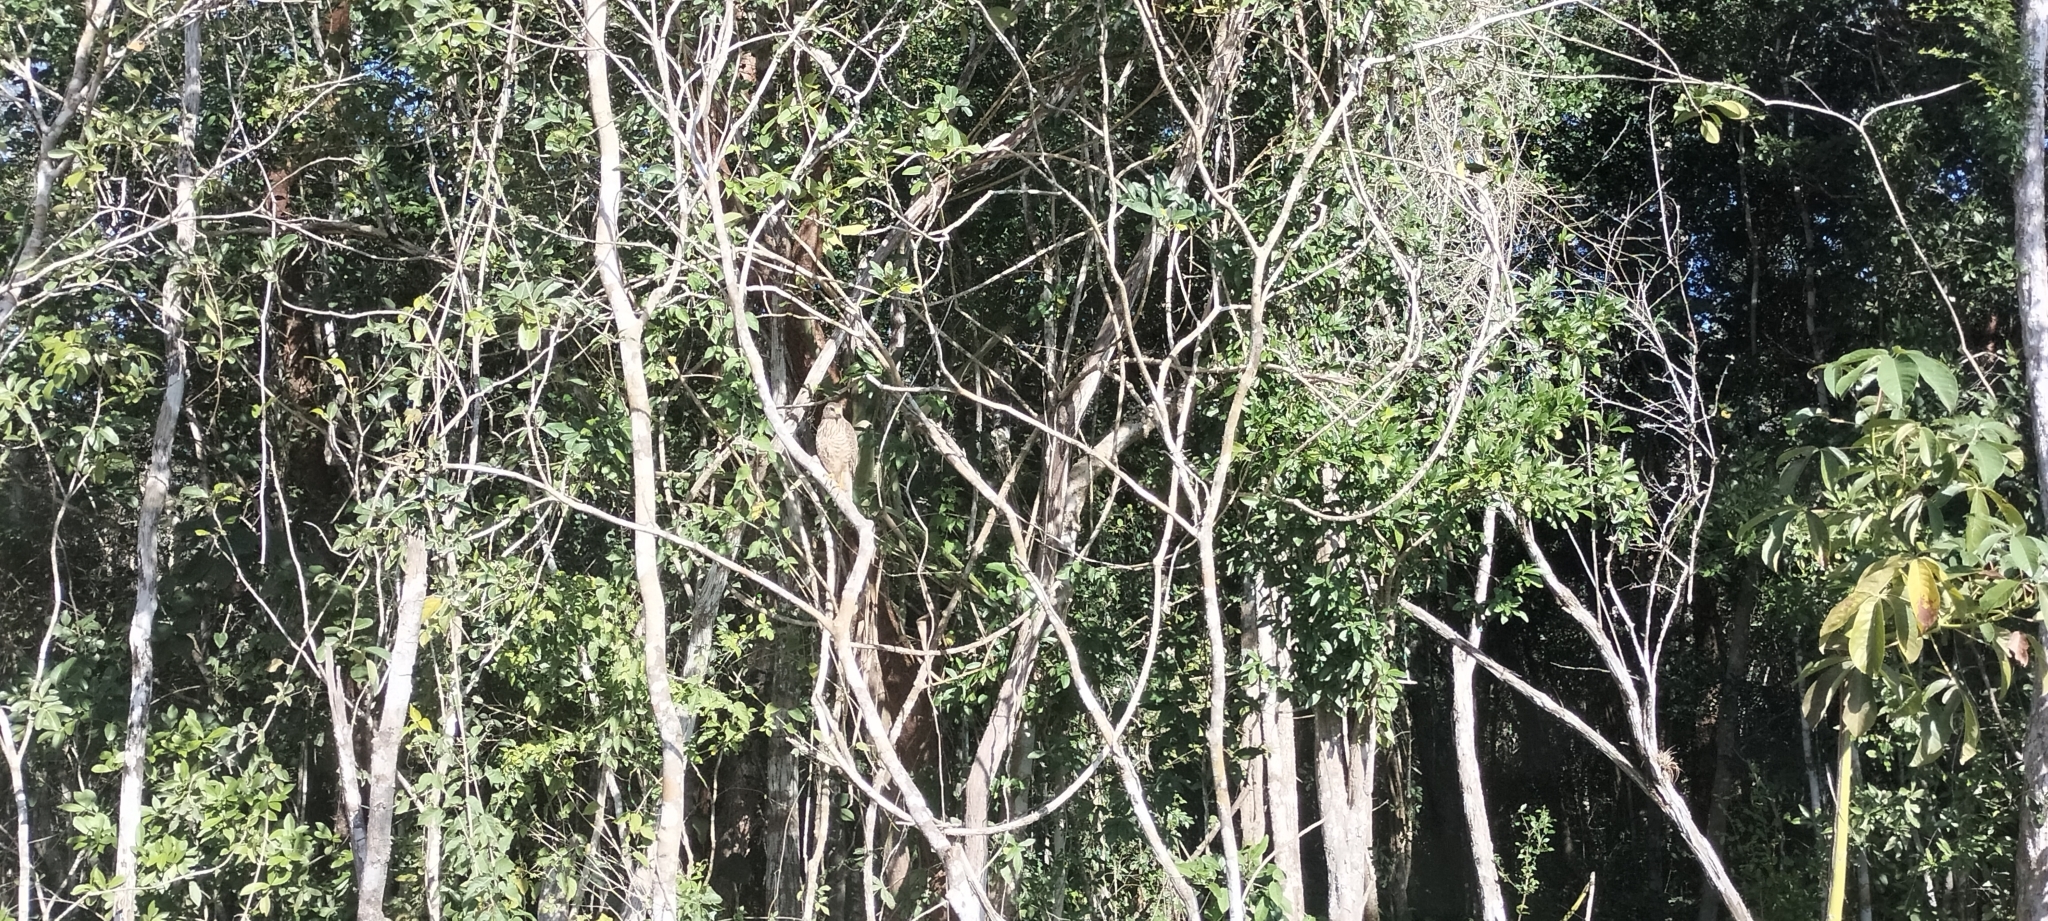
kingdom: Animalia
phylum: Chordata
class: Aves
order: Accipitriformes
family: Accipitridae
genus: Rupornis
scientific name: Rupornis magnirostris
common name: Roadside hawk
